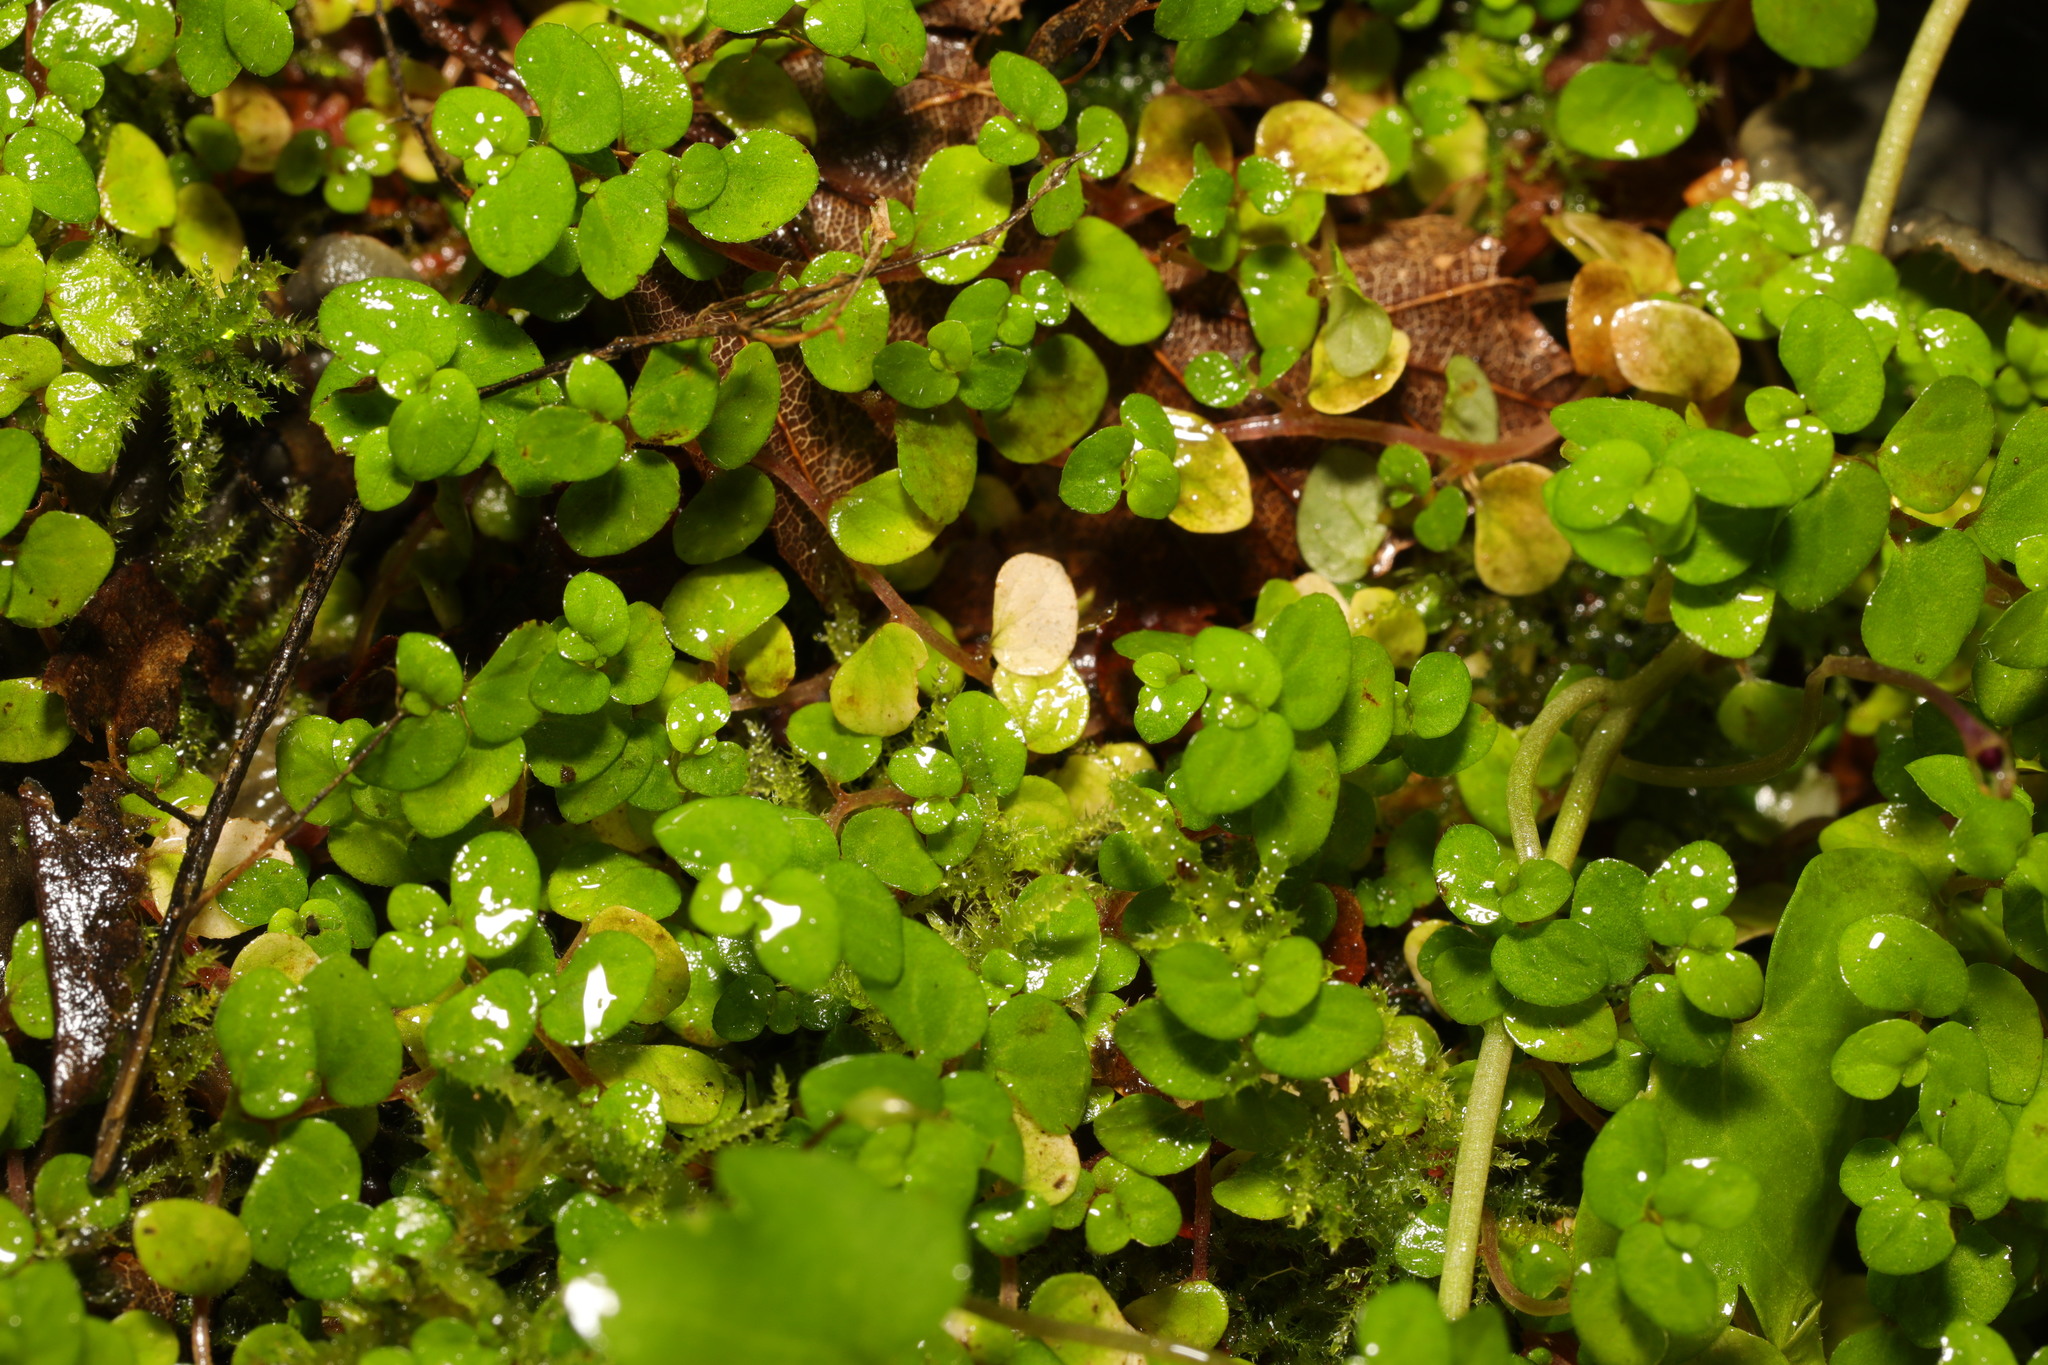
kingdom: Plantae
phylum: Tracheophyta
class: Magnoliopsida
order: Rosales
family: Urticaceae
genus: Soleirolia
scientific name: Soleirolia soleirolii
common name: Mind-your-own-business
